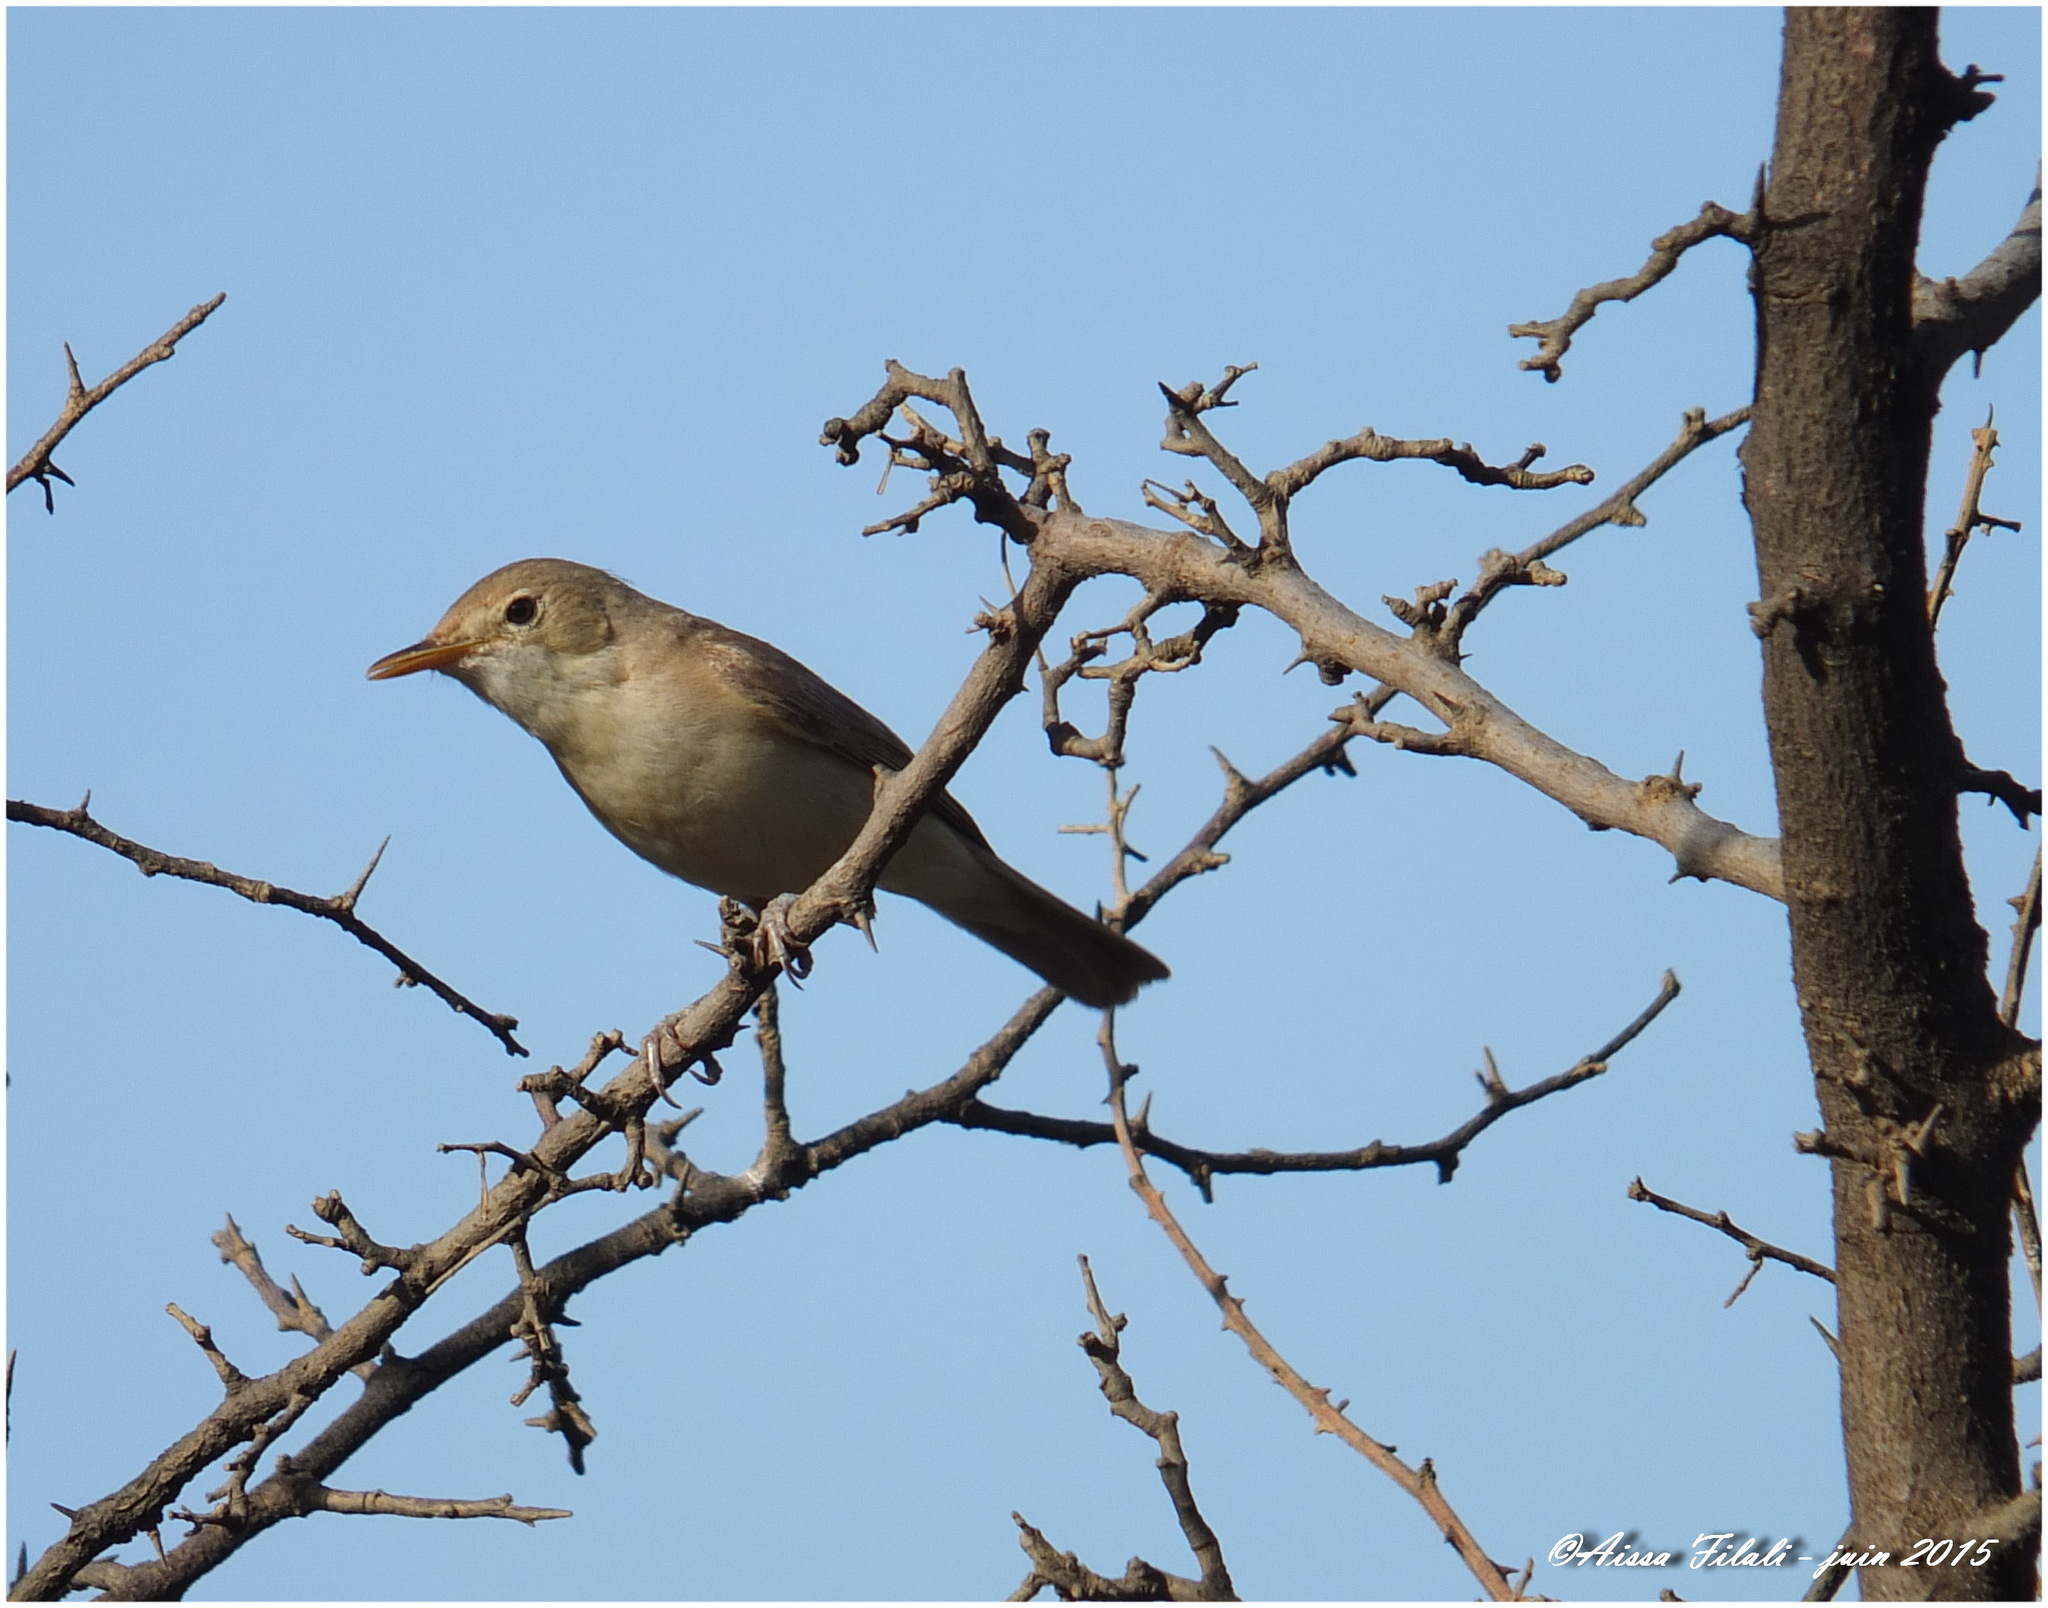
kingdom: Animalia
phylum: Chordata
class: Aves
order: Passeriformes
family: Acrocephalidae
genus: Iduna
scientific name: Iduna opaca
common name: Western olivaceous warbler
